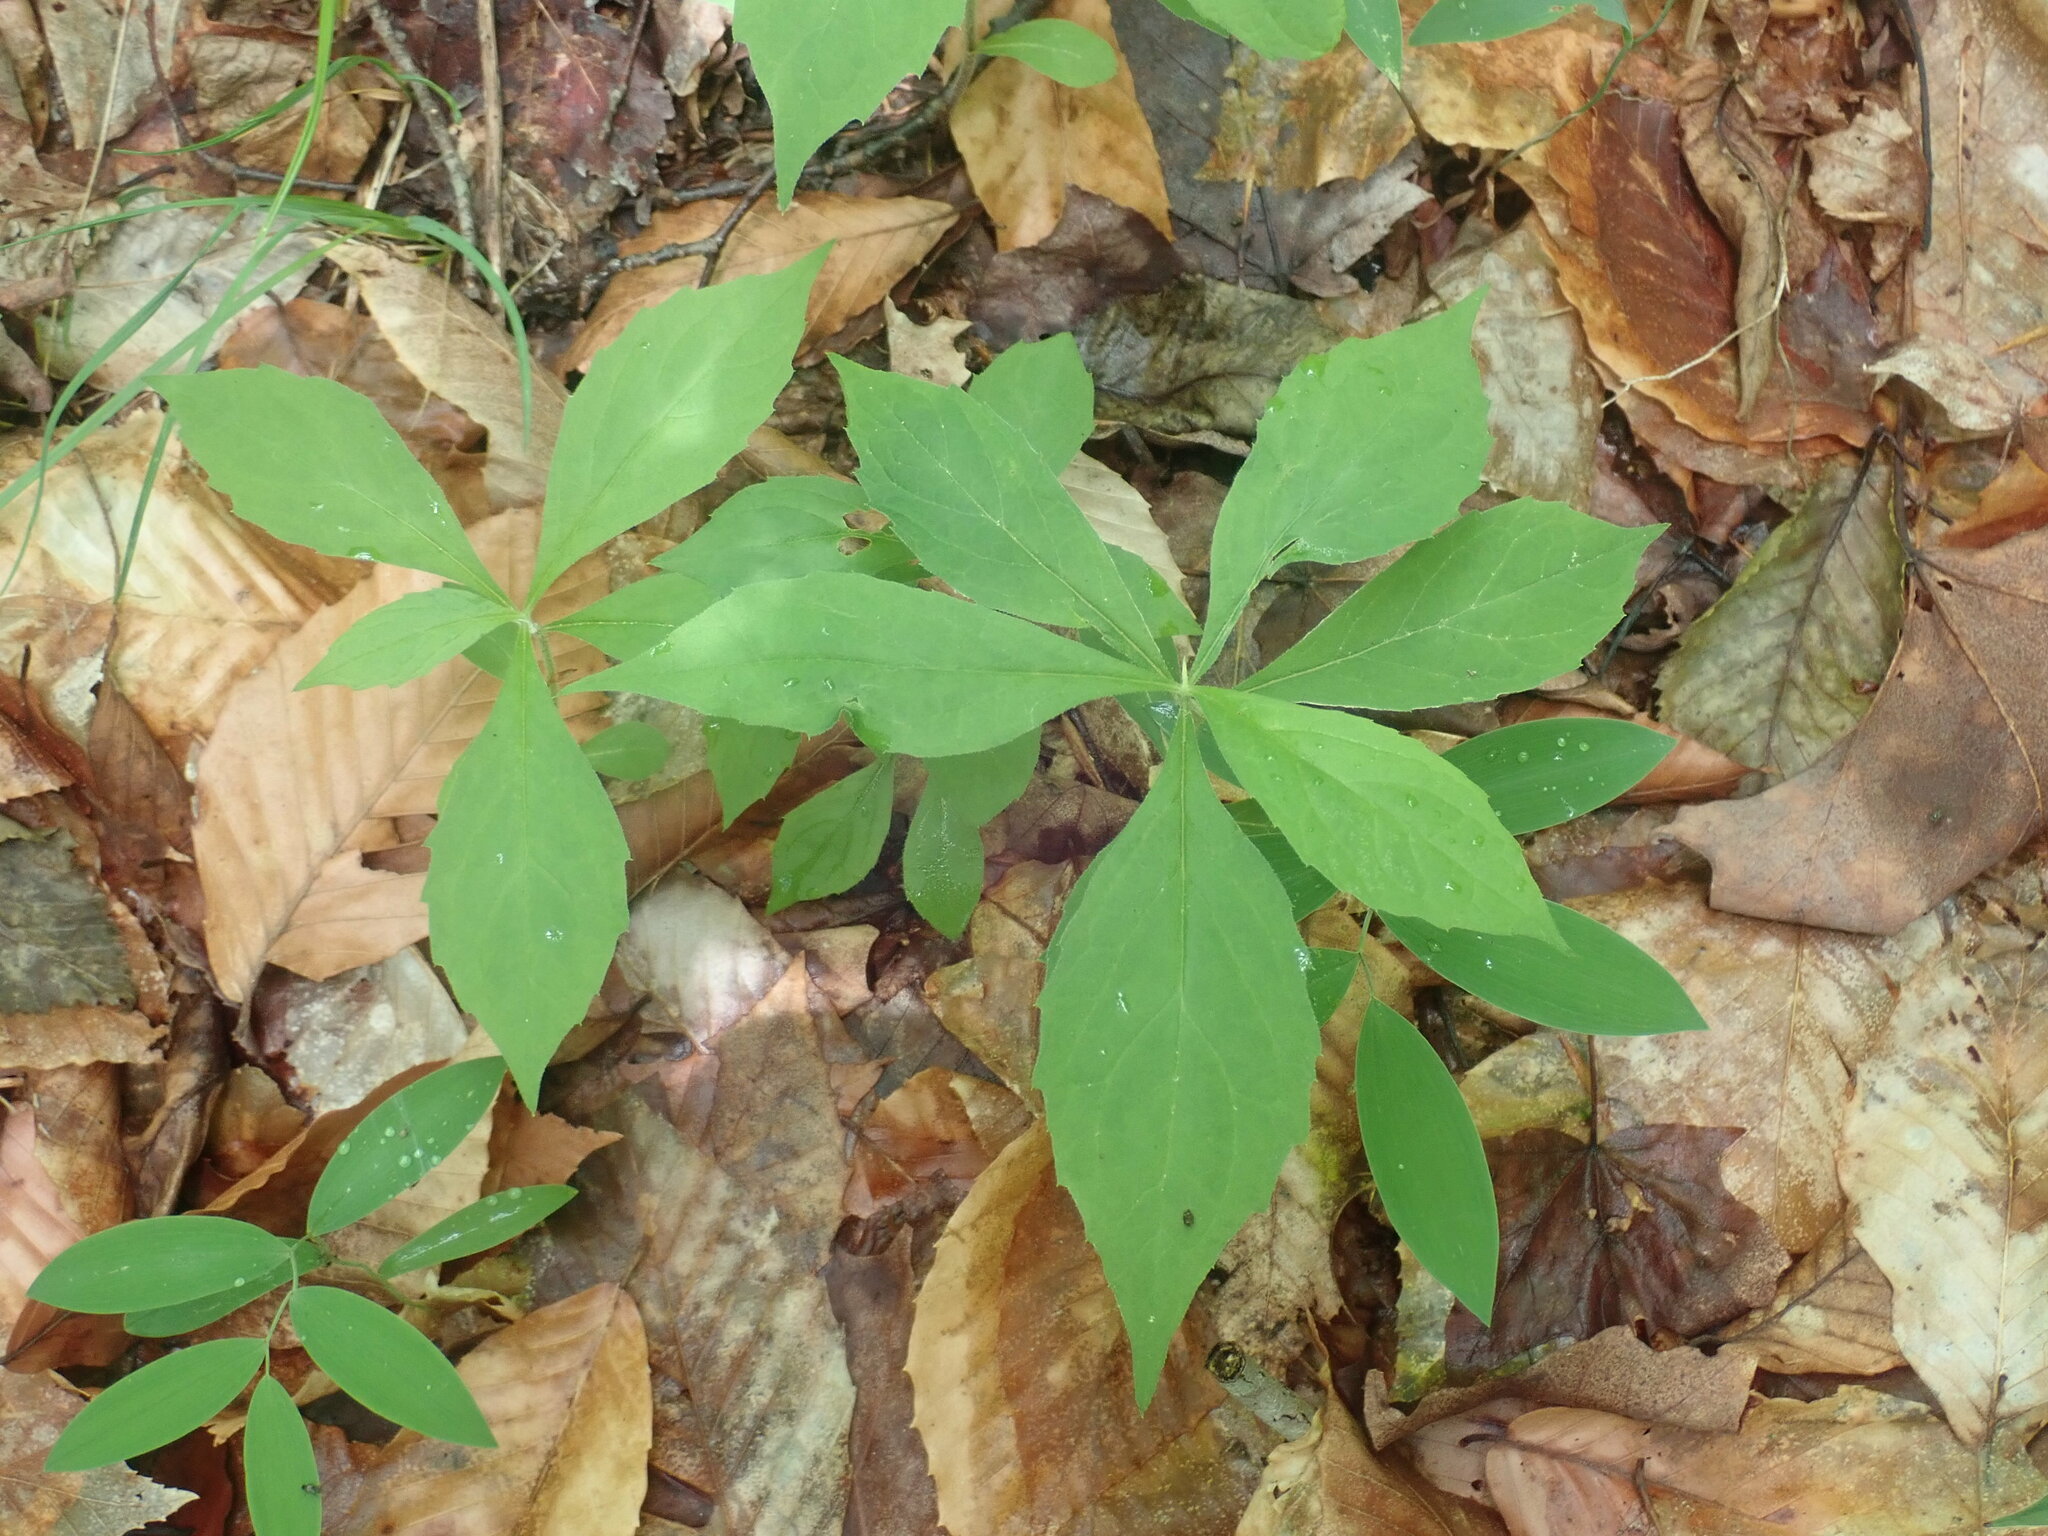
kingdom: Plantae
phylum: Tracheophyta
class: Magnoliopsida
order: Asterales
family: Asteraceae
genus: Oclemena
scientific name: Oclemena acuminata
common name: Mountain aster
